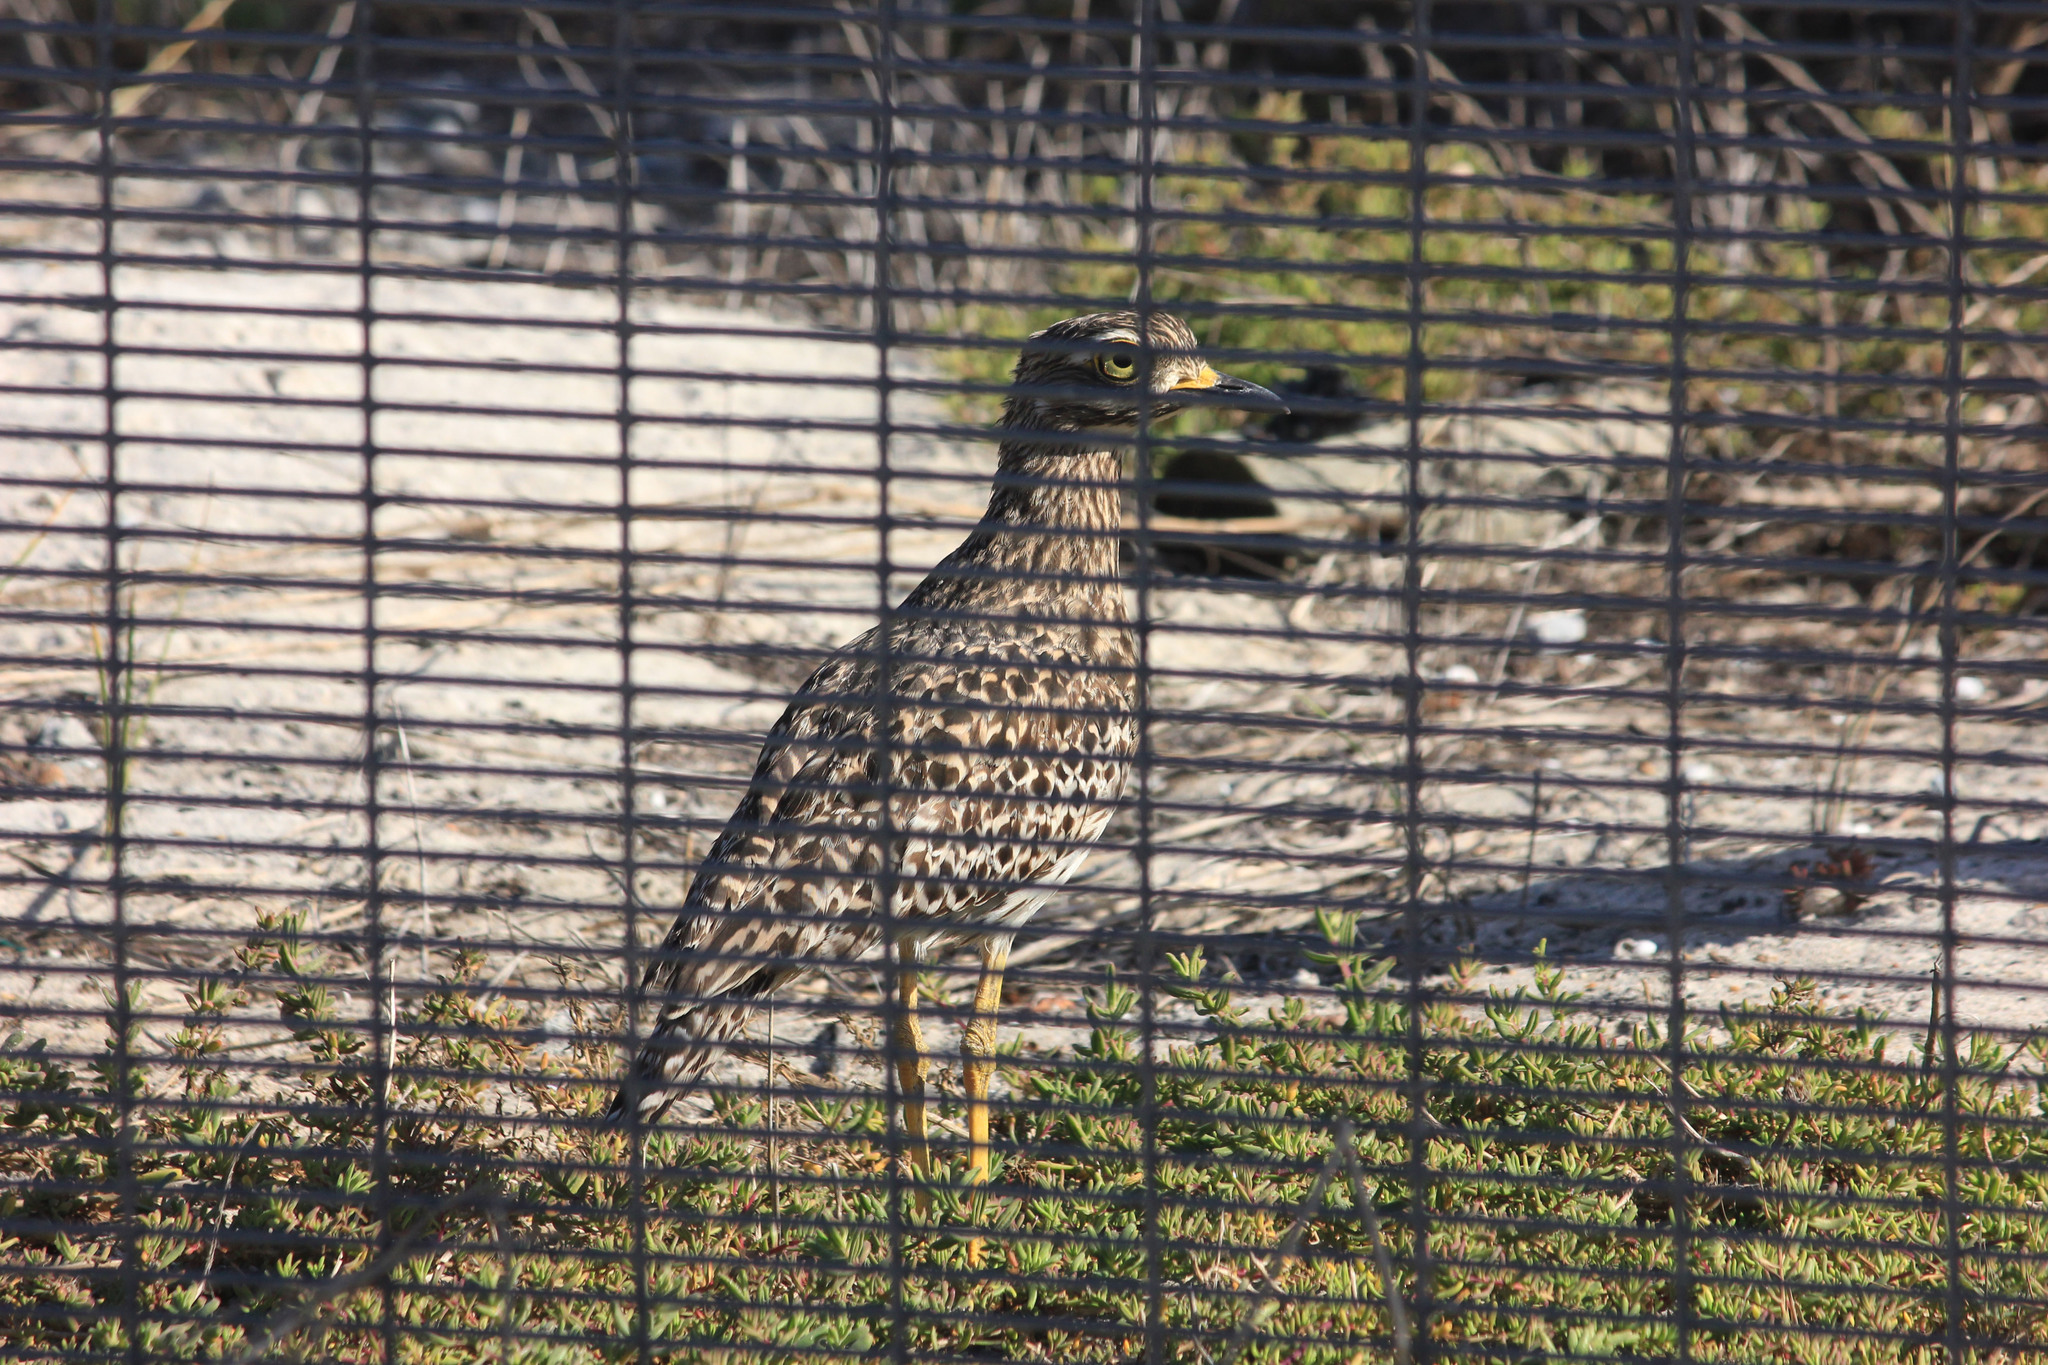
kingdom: Animalia
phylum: Chordata
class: Aves
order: Charadriiformes
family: Burhinidae
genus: Burhinus
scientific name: Burhinus capensis
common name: Spotted thick-knee
